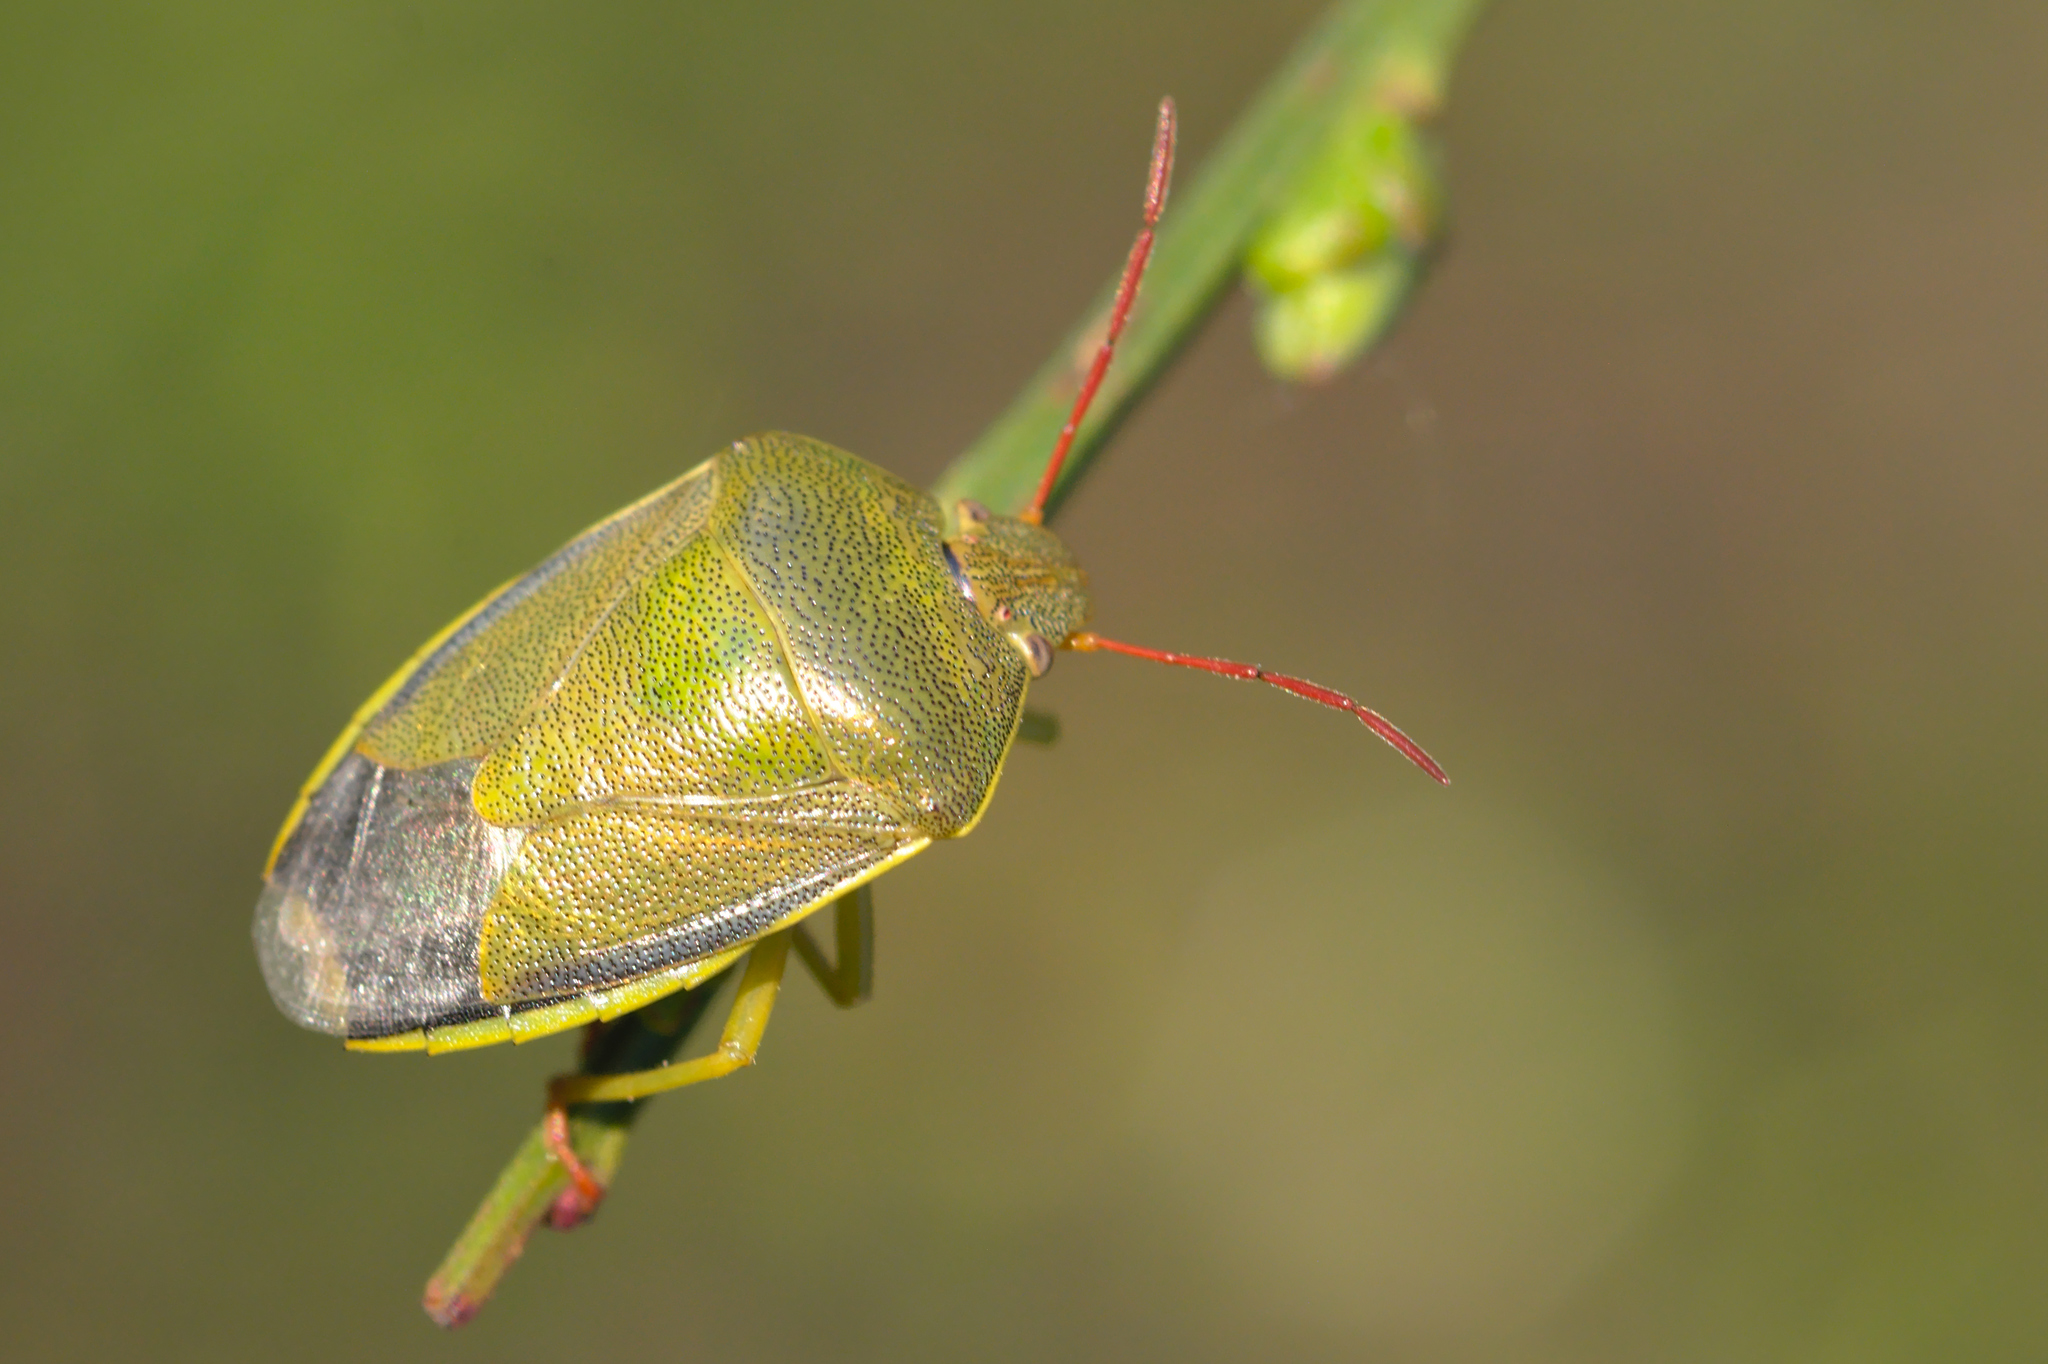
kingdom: Animalia
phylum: Arthropoda
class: Insecta
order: Hemiptera
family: Pentatomidae
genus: Piezodorus
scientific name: Piezodorus lituratus
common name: Stink bug
